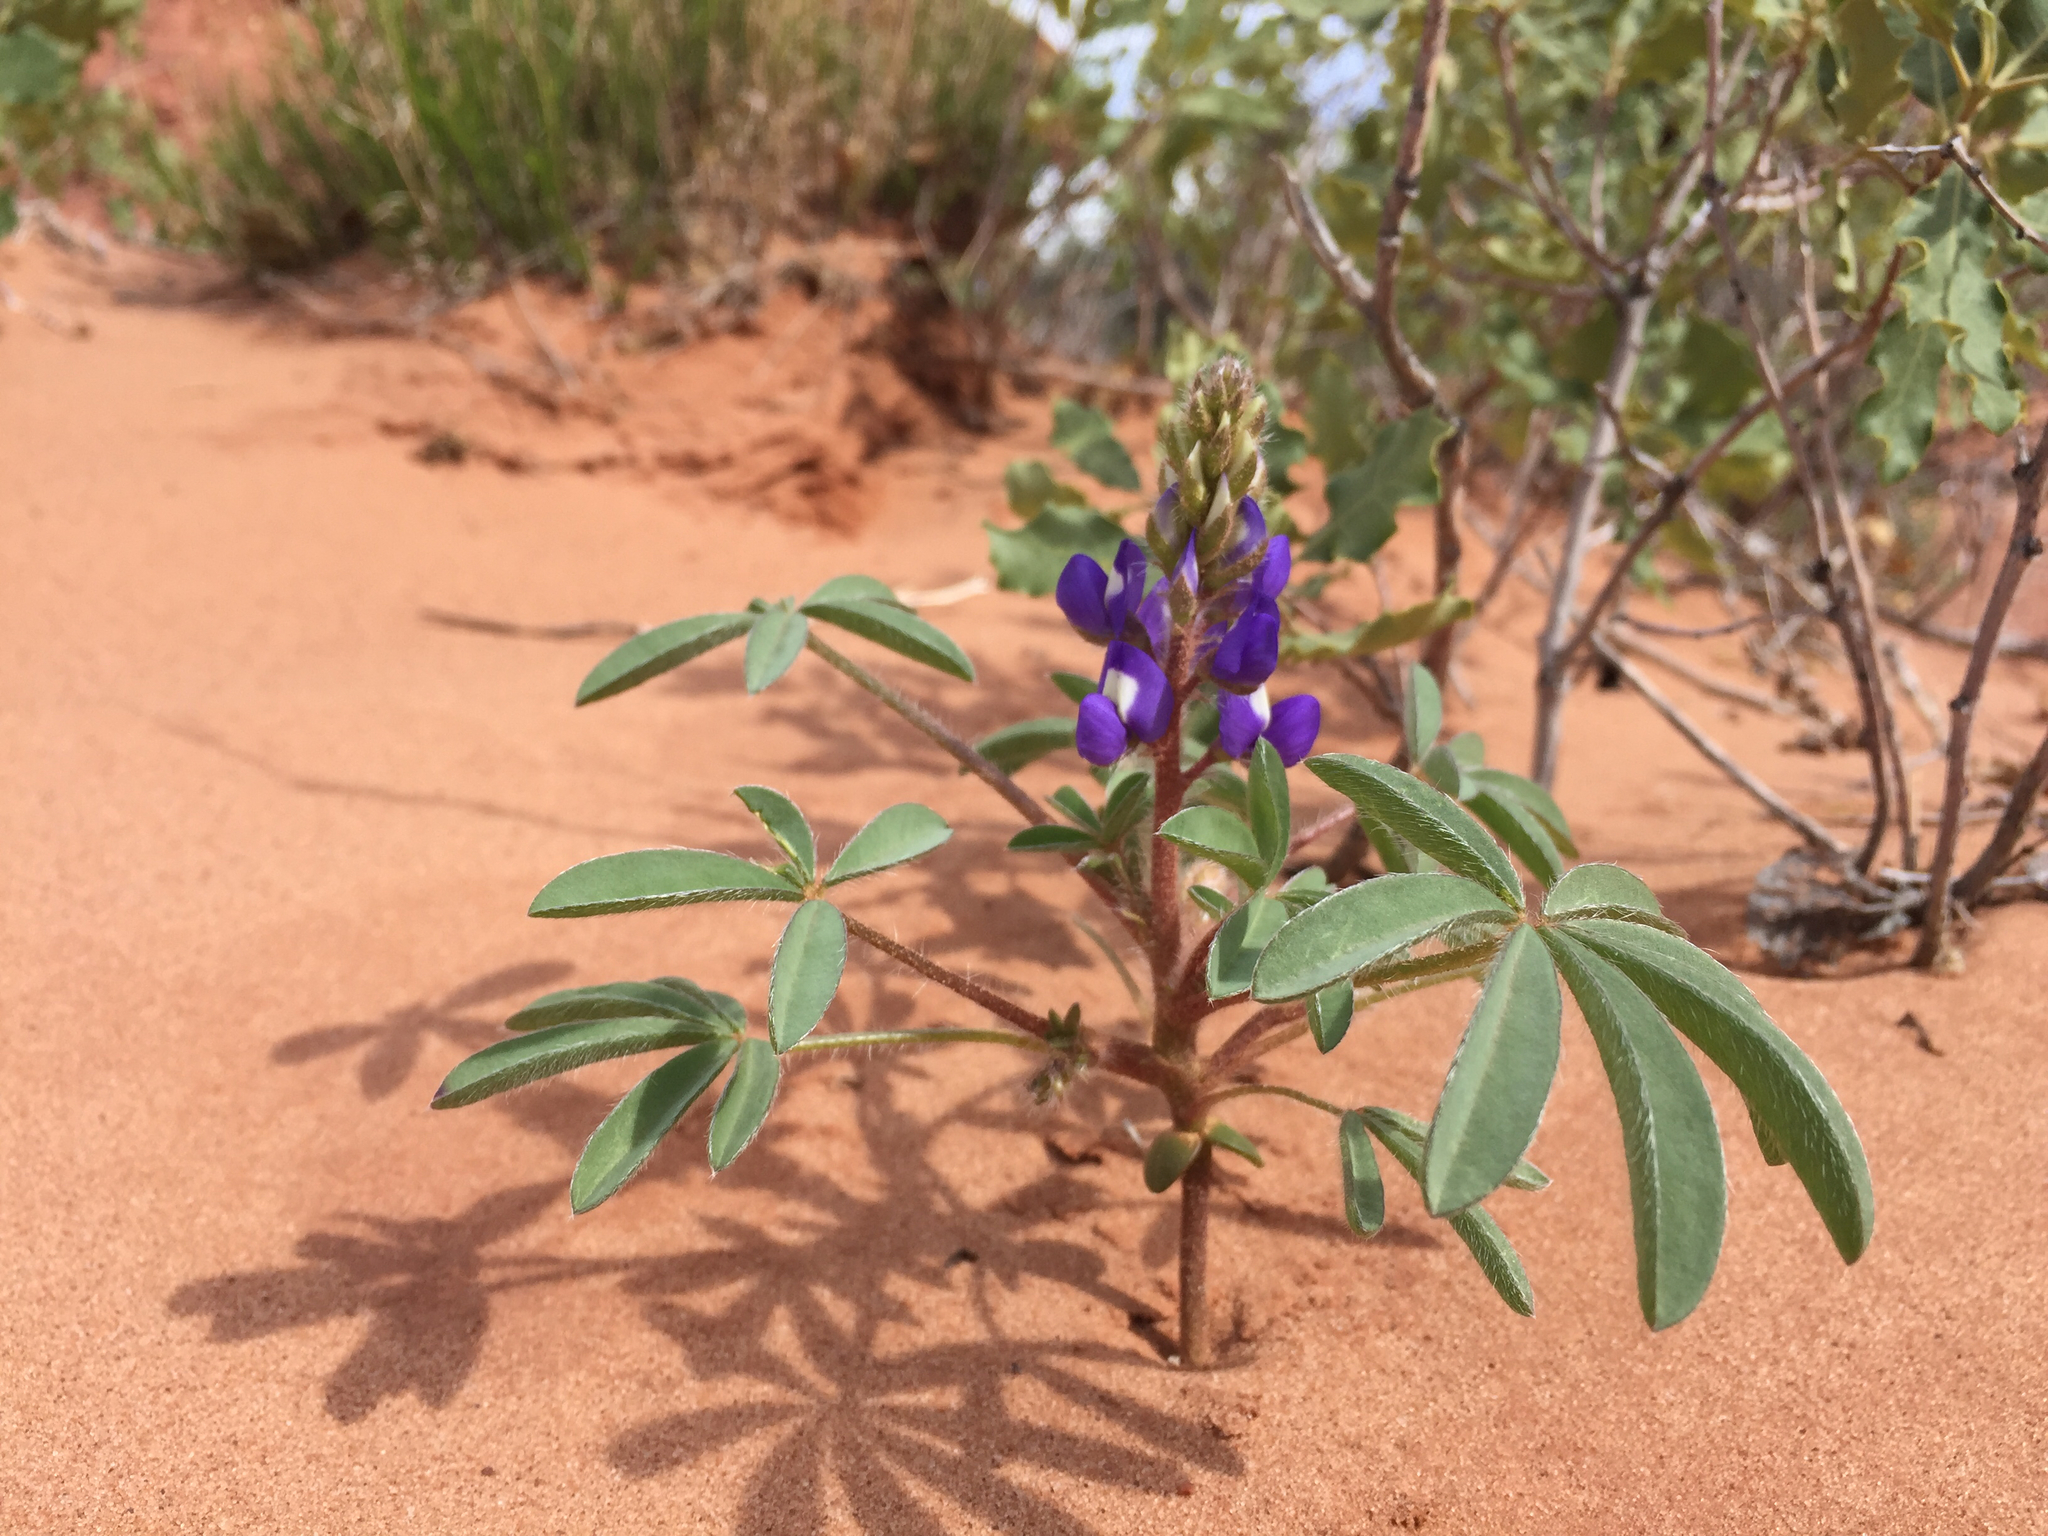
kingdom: Plantae
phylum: Tracheophyta
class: Magnoliopsida
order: Fabales
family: Fabaceae
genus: Lupinus
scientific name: Lupinus pusillus
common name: Low lupine
